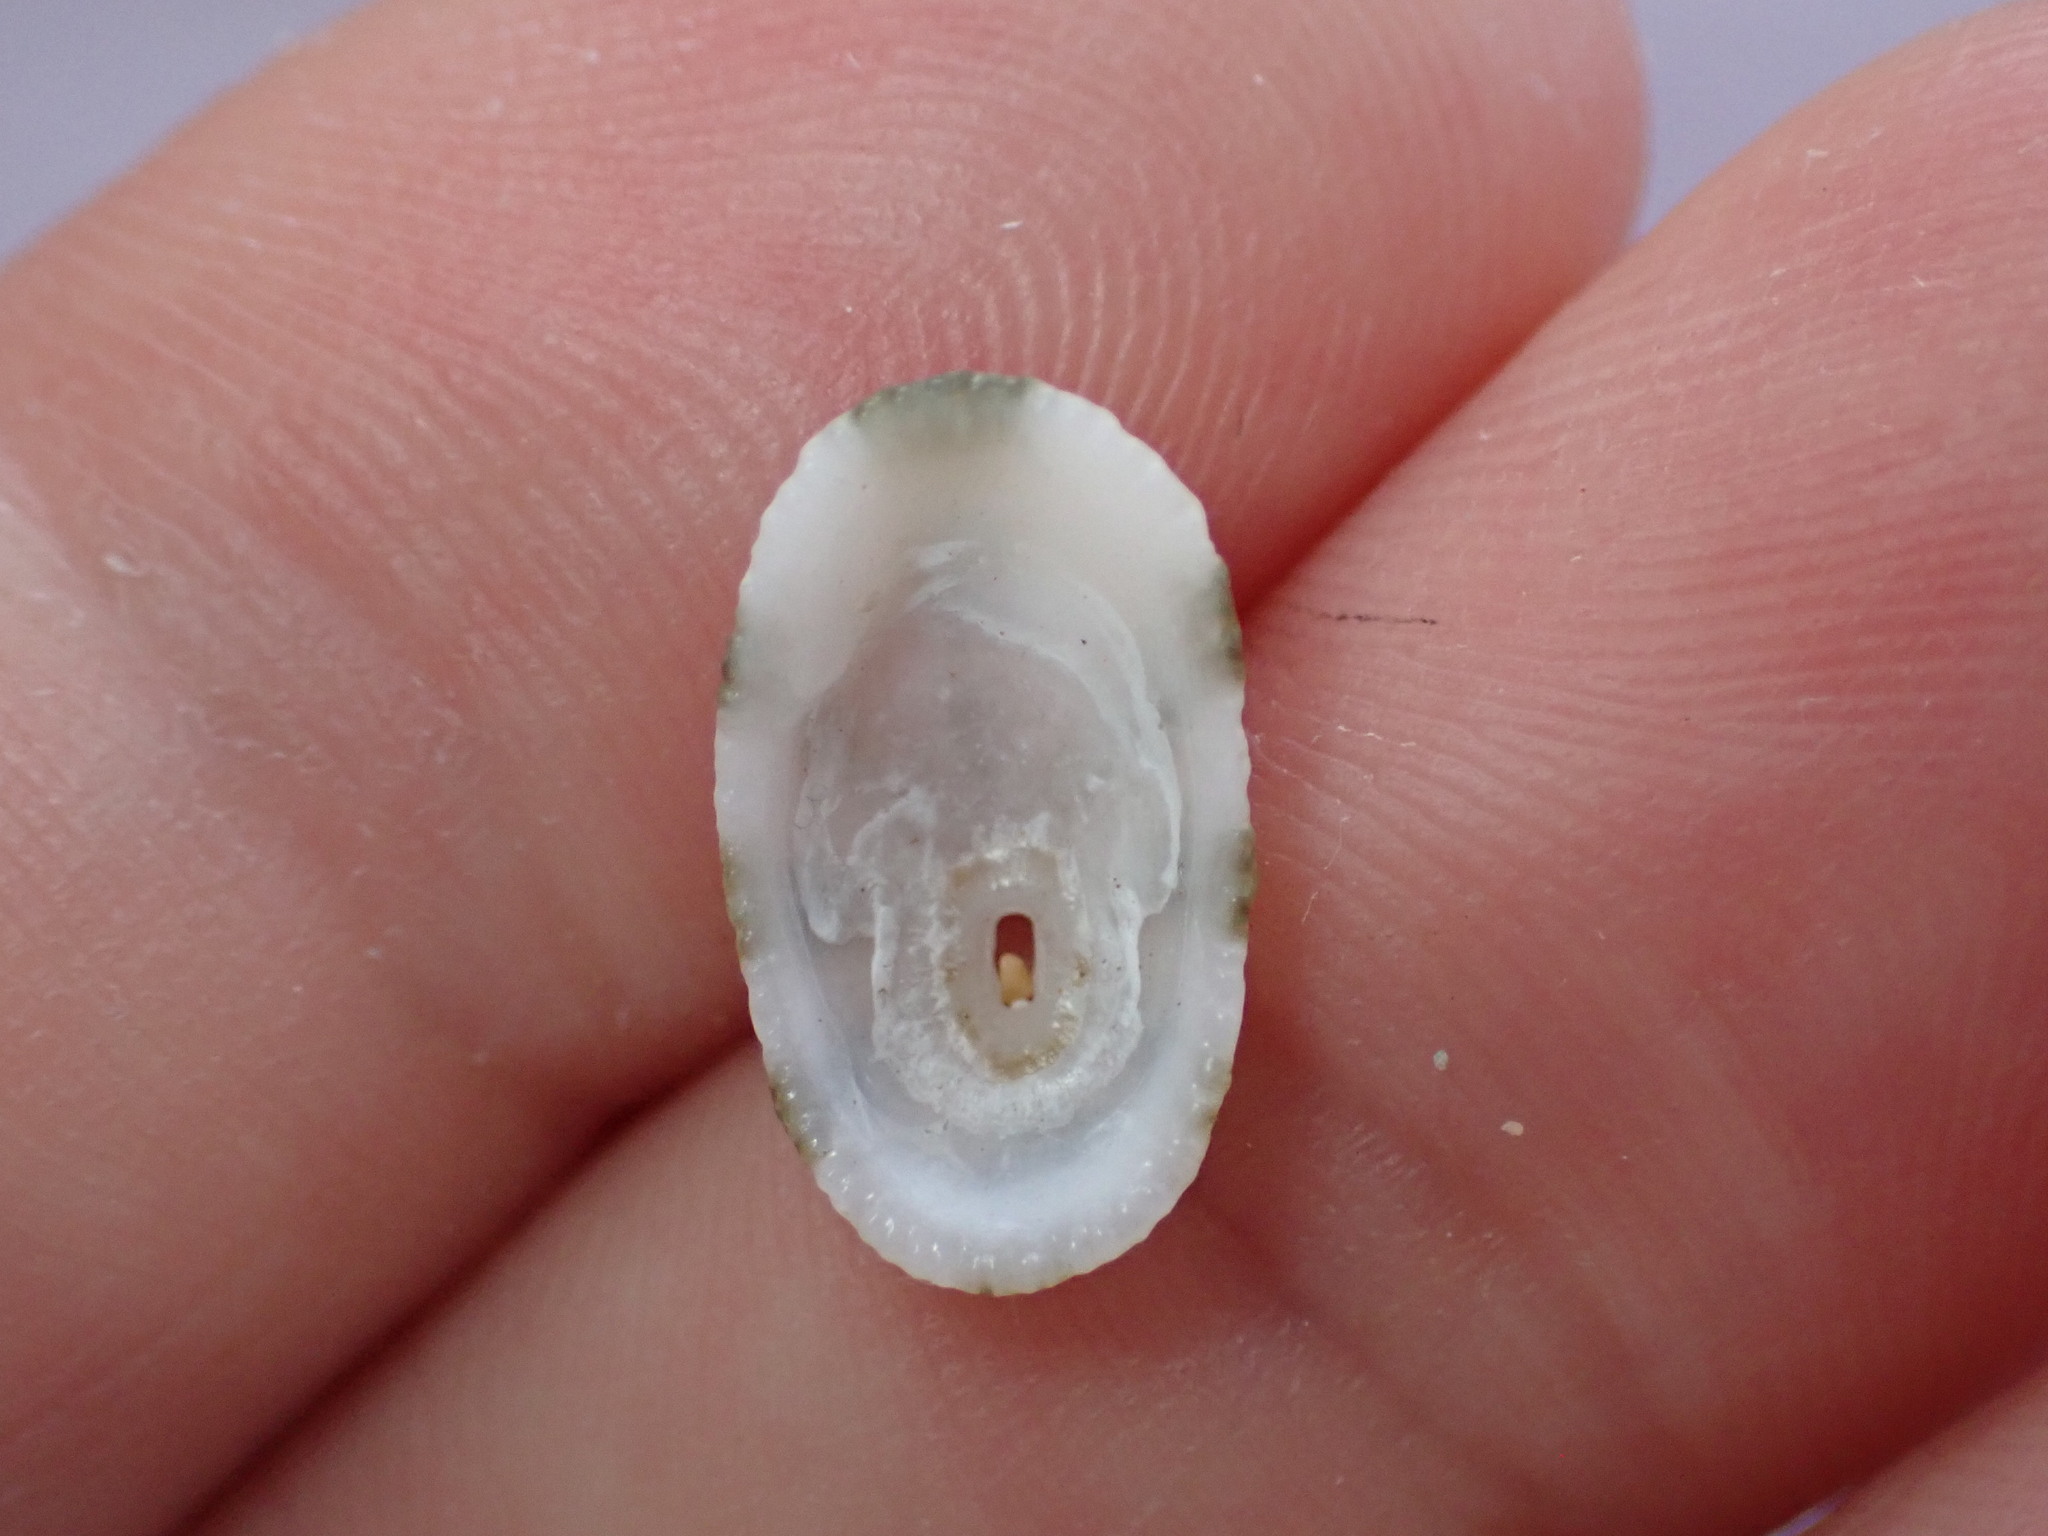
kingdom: Animalia
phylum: Mollusca
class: Gastropoda
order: Lepetellida
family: Fissurellidae
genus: Diodora
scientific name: Diodora graeca
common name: Common keyhole limpet
